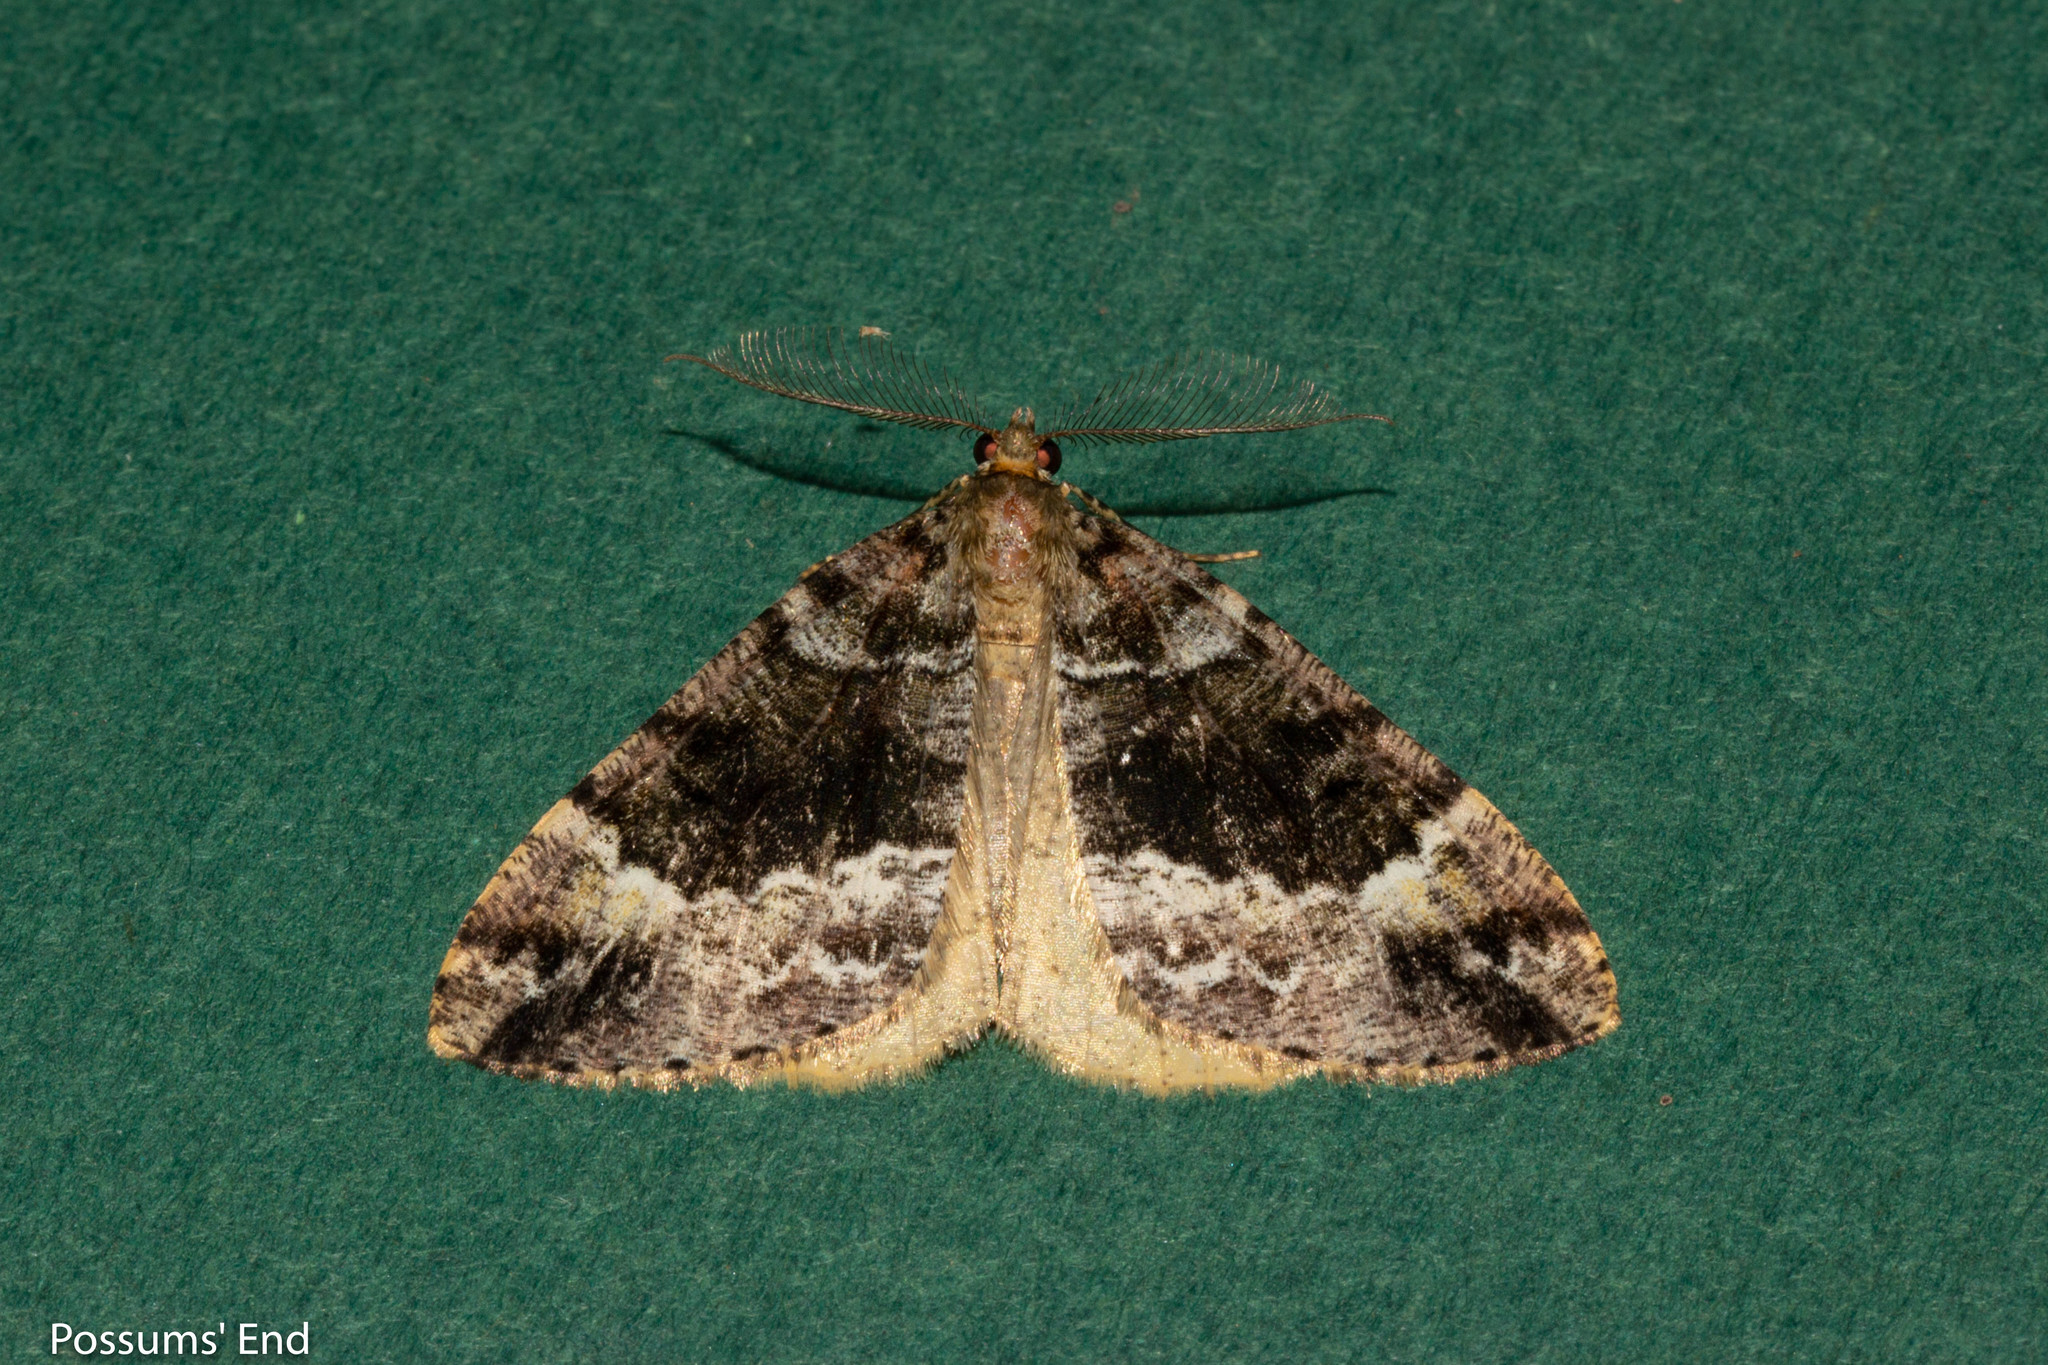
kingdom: Animalia
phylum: Arthropoda
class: Insecta
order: Lepidoptera
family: Geometridae
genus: Pseudocoremia
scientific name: Pseudocoremia productata
